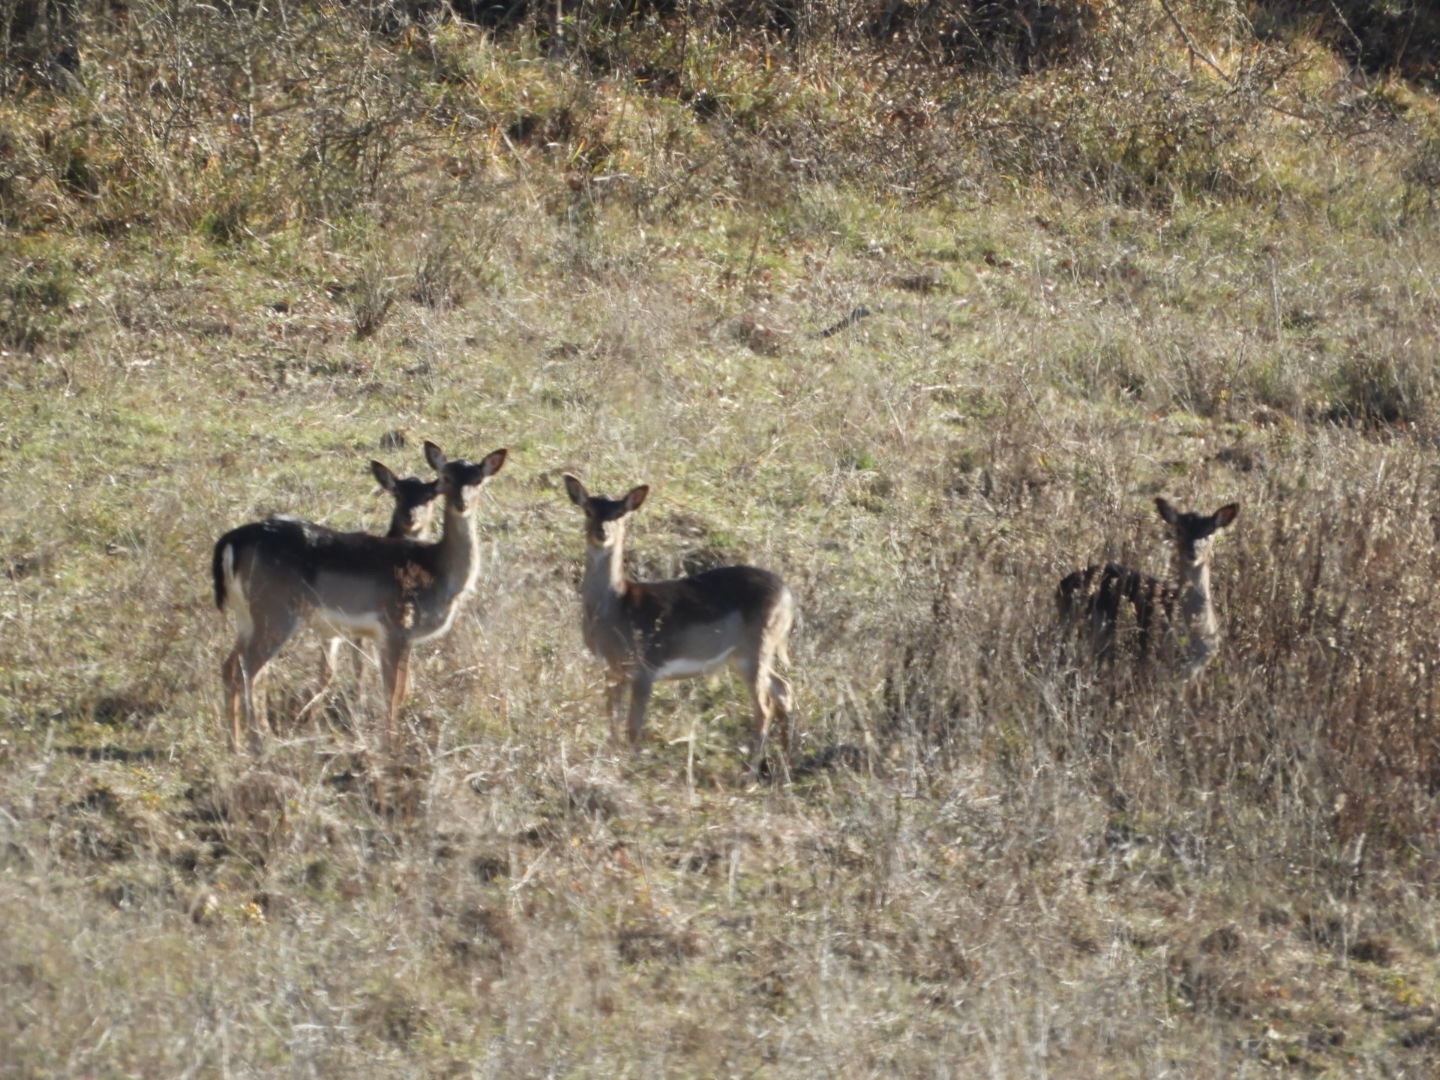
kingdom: Animalia
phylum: Chordata
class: Mammalia
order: Artiodactyla
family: Cervidae
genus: Dama
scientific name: Dama dama
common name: Fallow deer
